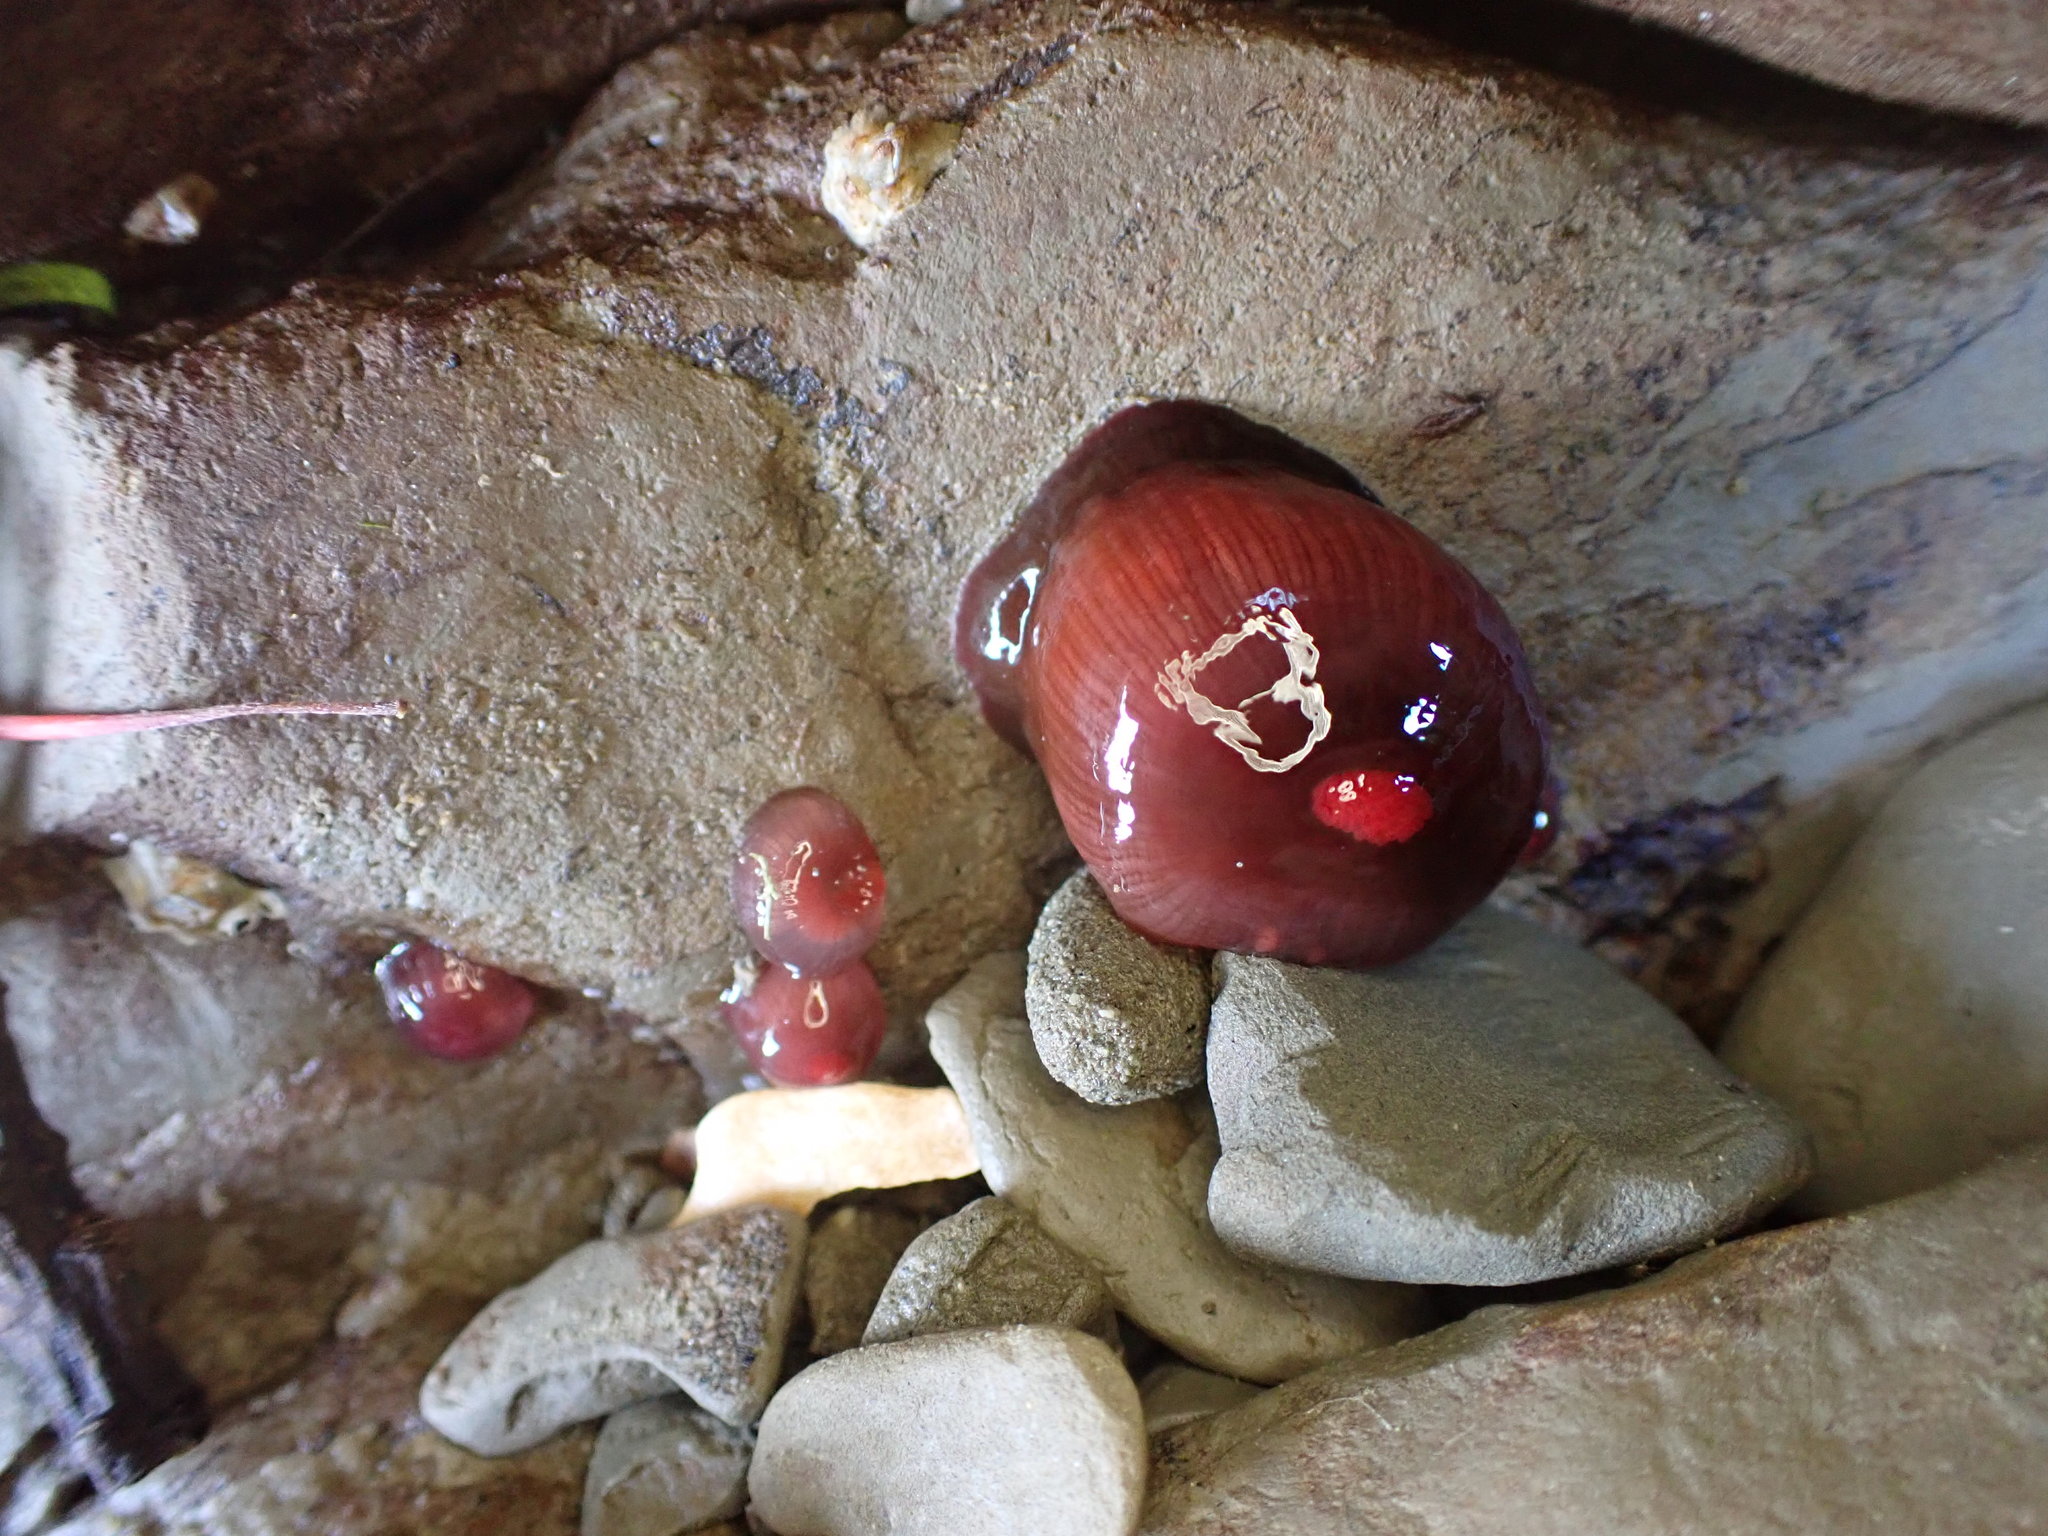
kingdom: Animalia
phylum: Cnidaria
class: Anthozoa
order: Actiniaria
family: Actiniidae
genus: Actinia
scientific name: Actinia tenebrosa
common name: Waratah anemone
